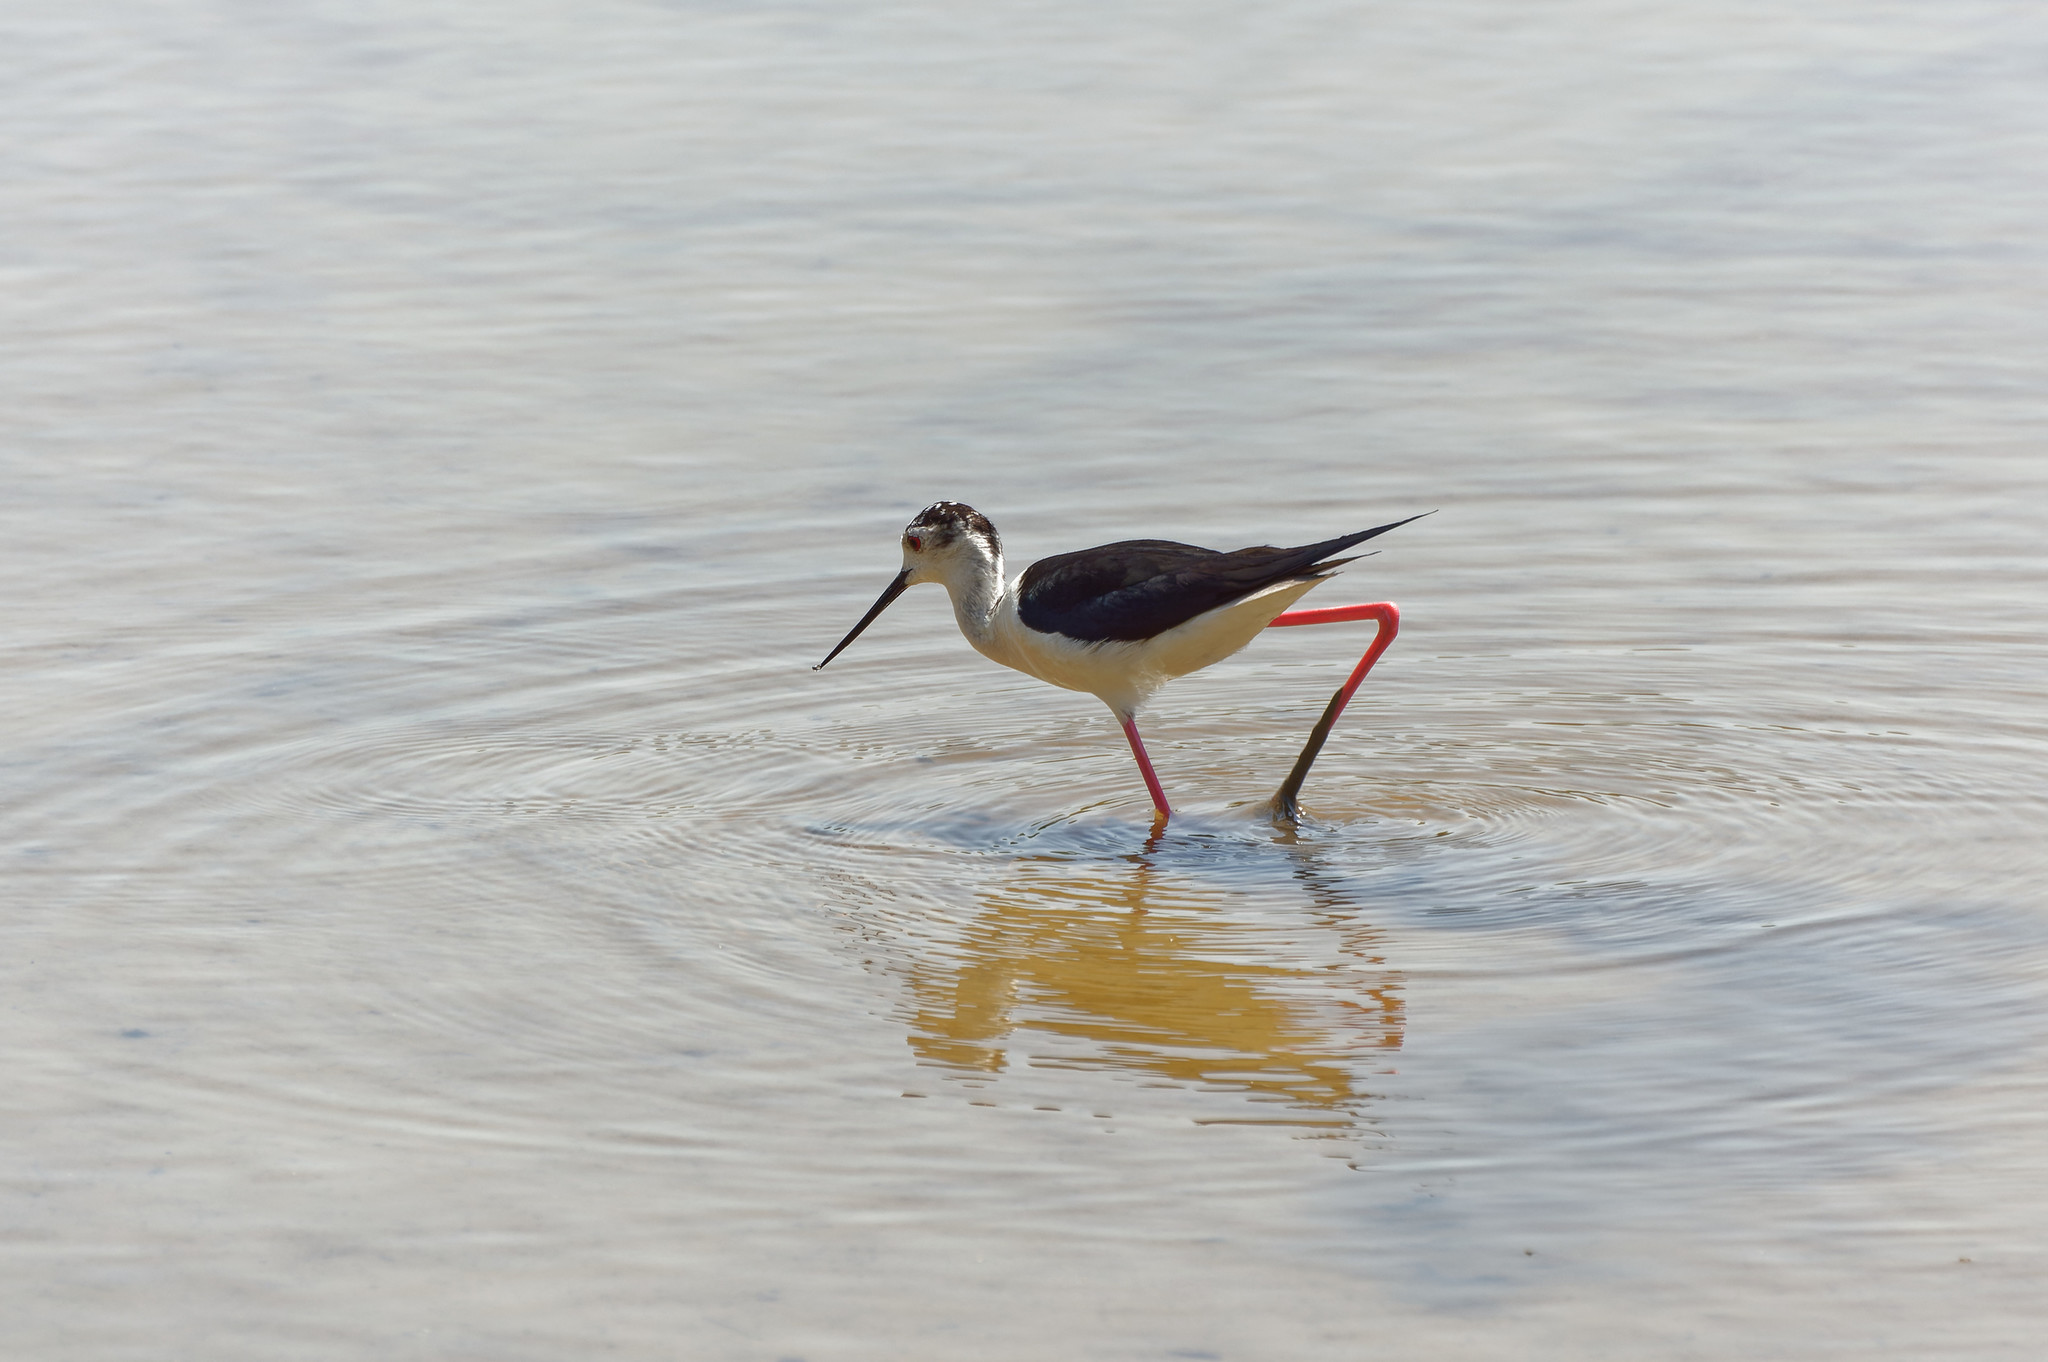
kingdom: Animalia
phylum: Chordata
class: Aves
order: Charadriiformes
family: Recurvirostridae
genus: Himantopus
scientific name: Himantopus himantopus
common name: Black-winged stilt
